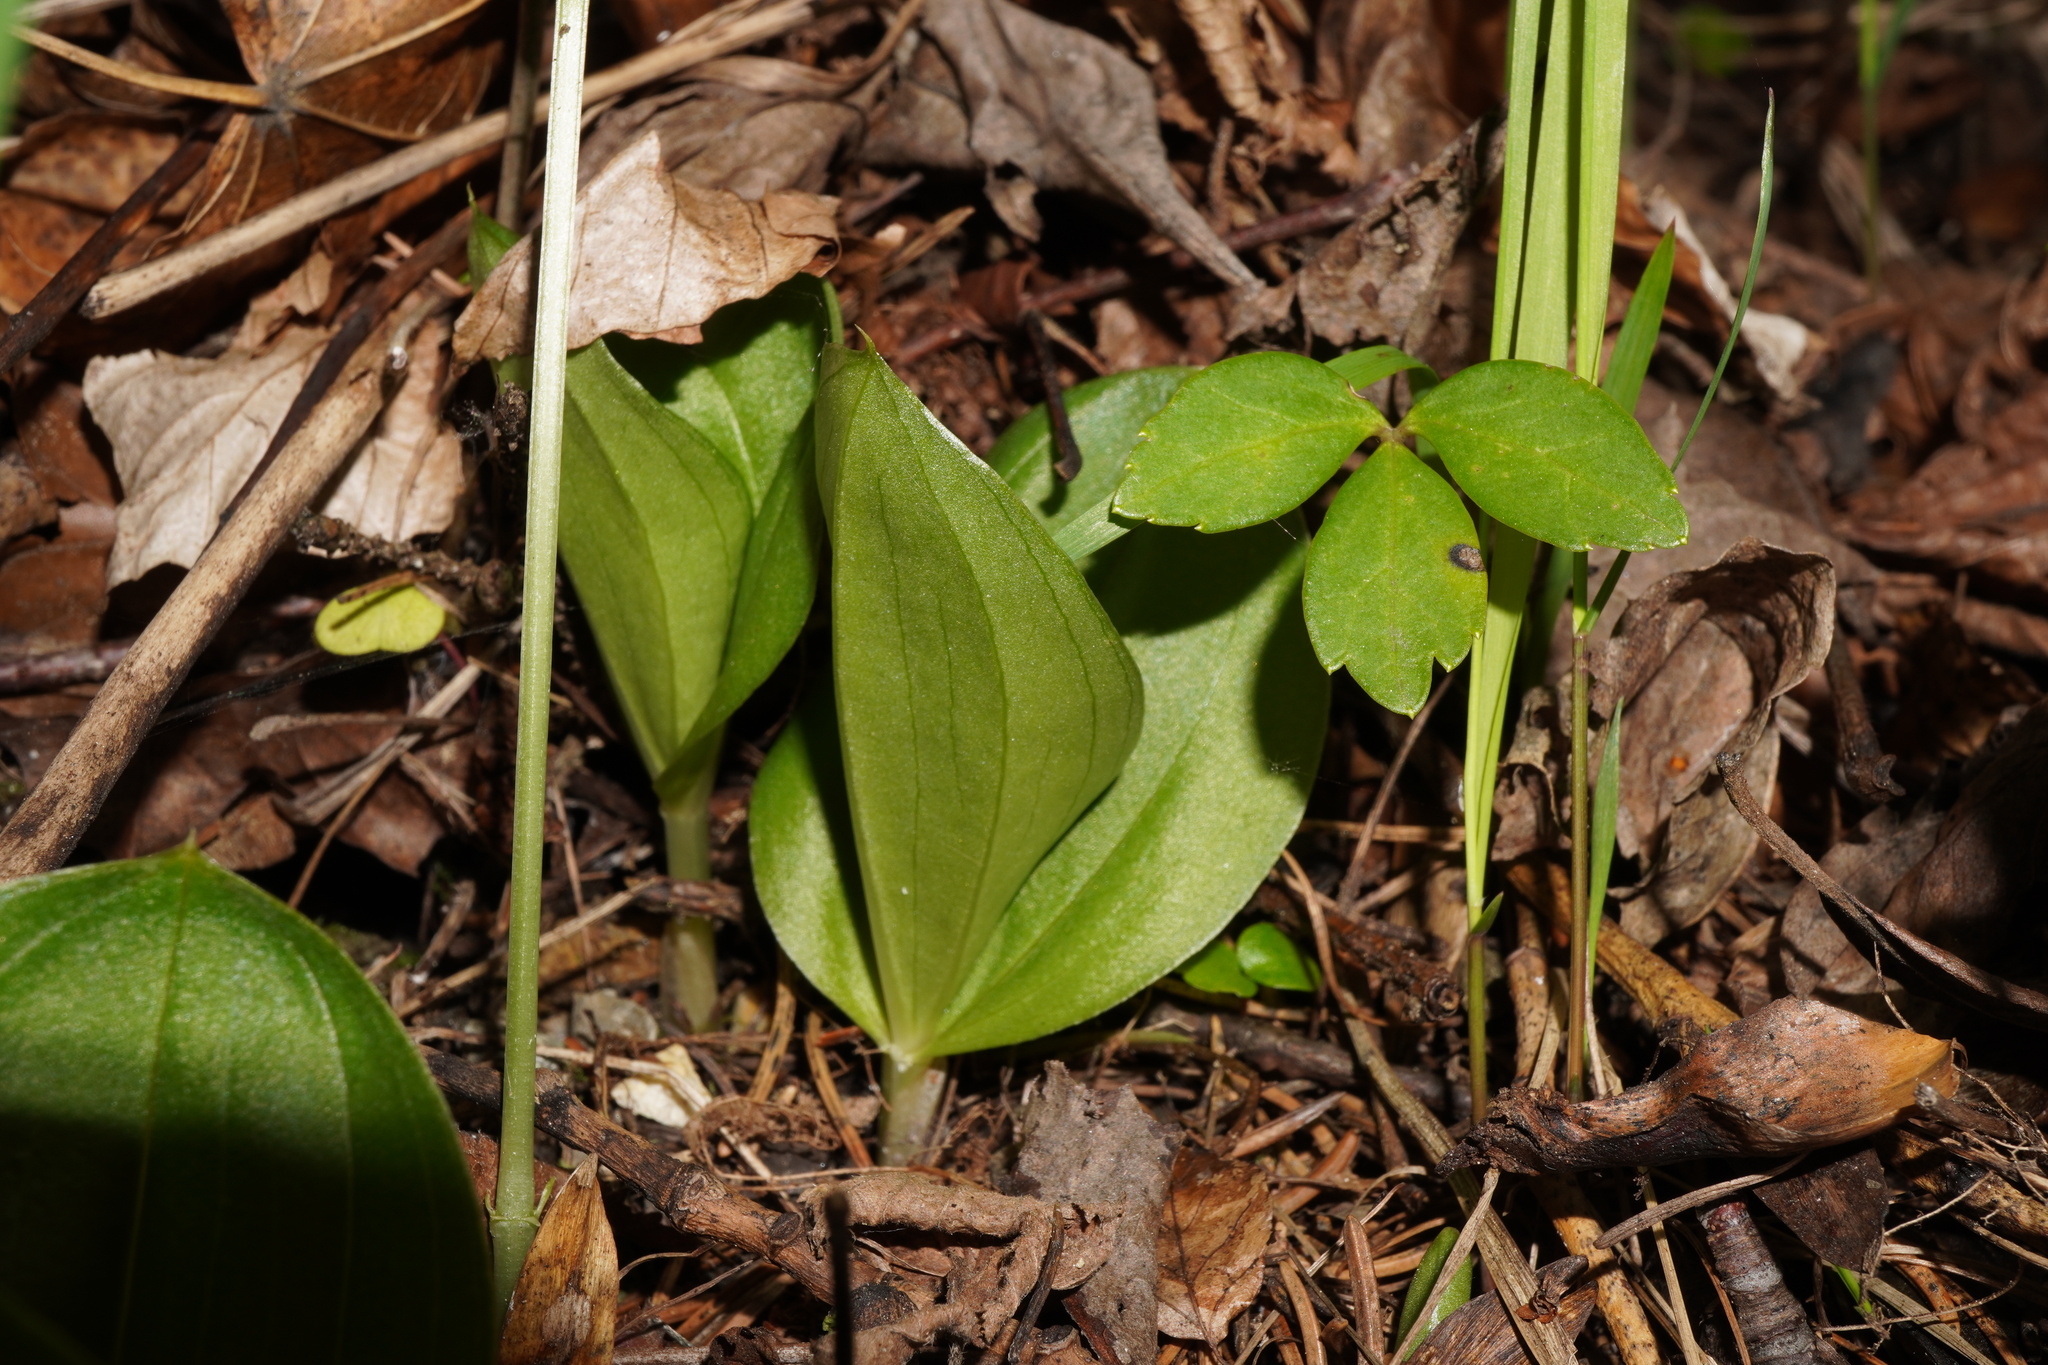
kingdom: Plantae
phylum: Tracheophyta
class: Liliopsida
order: Asparagales
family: Orchidaceae
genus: Neottia
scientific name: Neottia ovata
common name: Common twayblade
